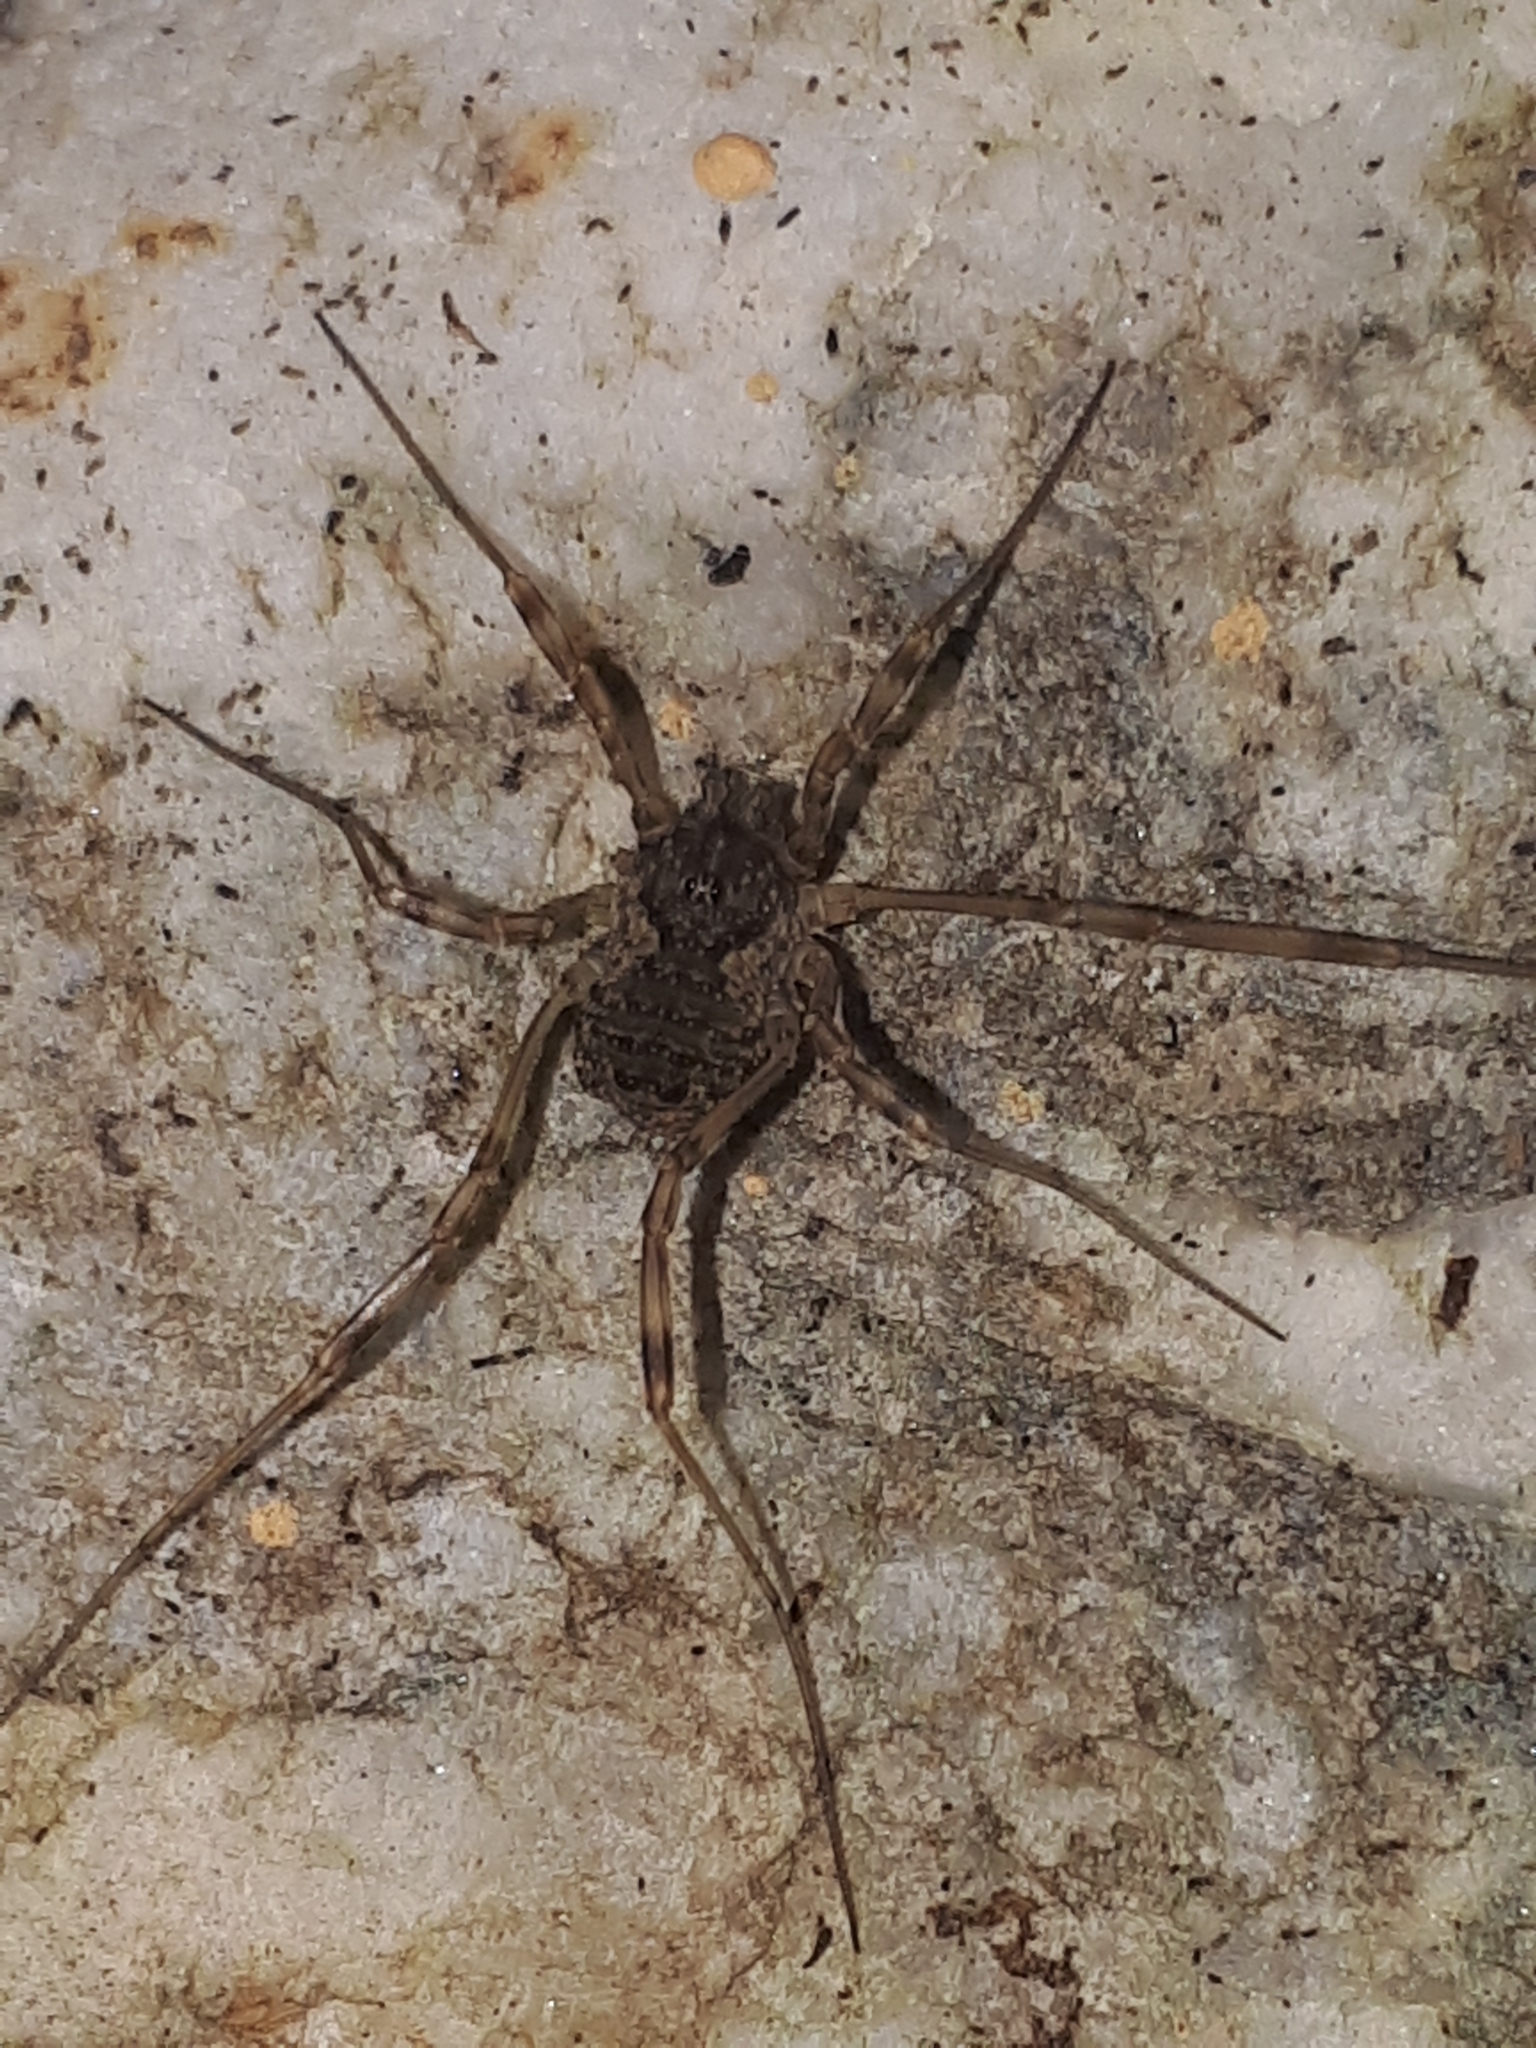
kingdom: Animalia
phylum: Arthropoda
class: Arachnida
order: Opiliones
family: Phalangiidae
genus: Oligolophus
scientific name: Oligolophus hansenii
